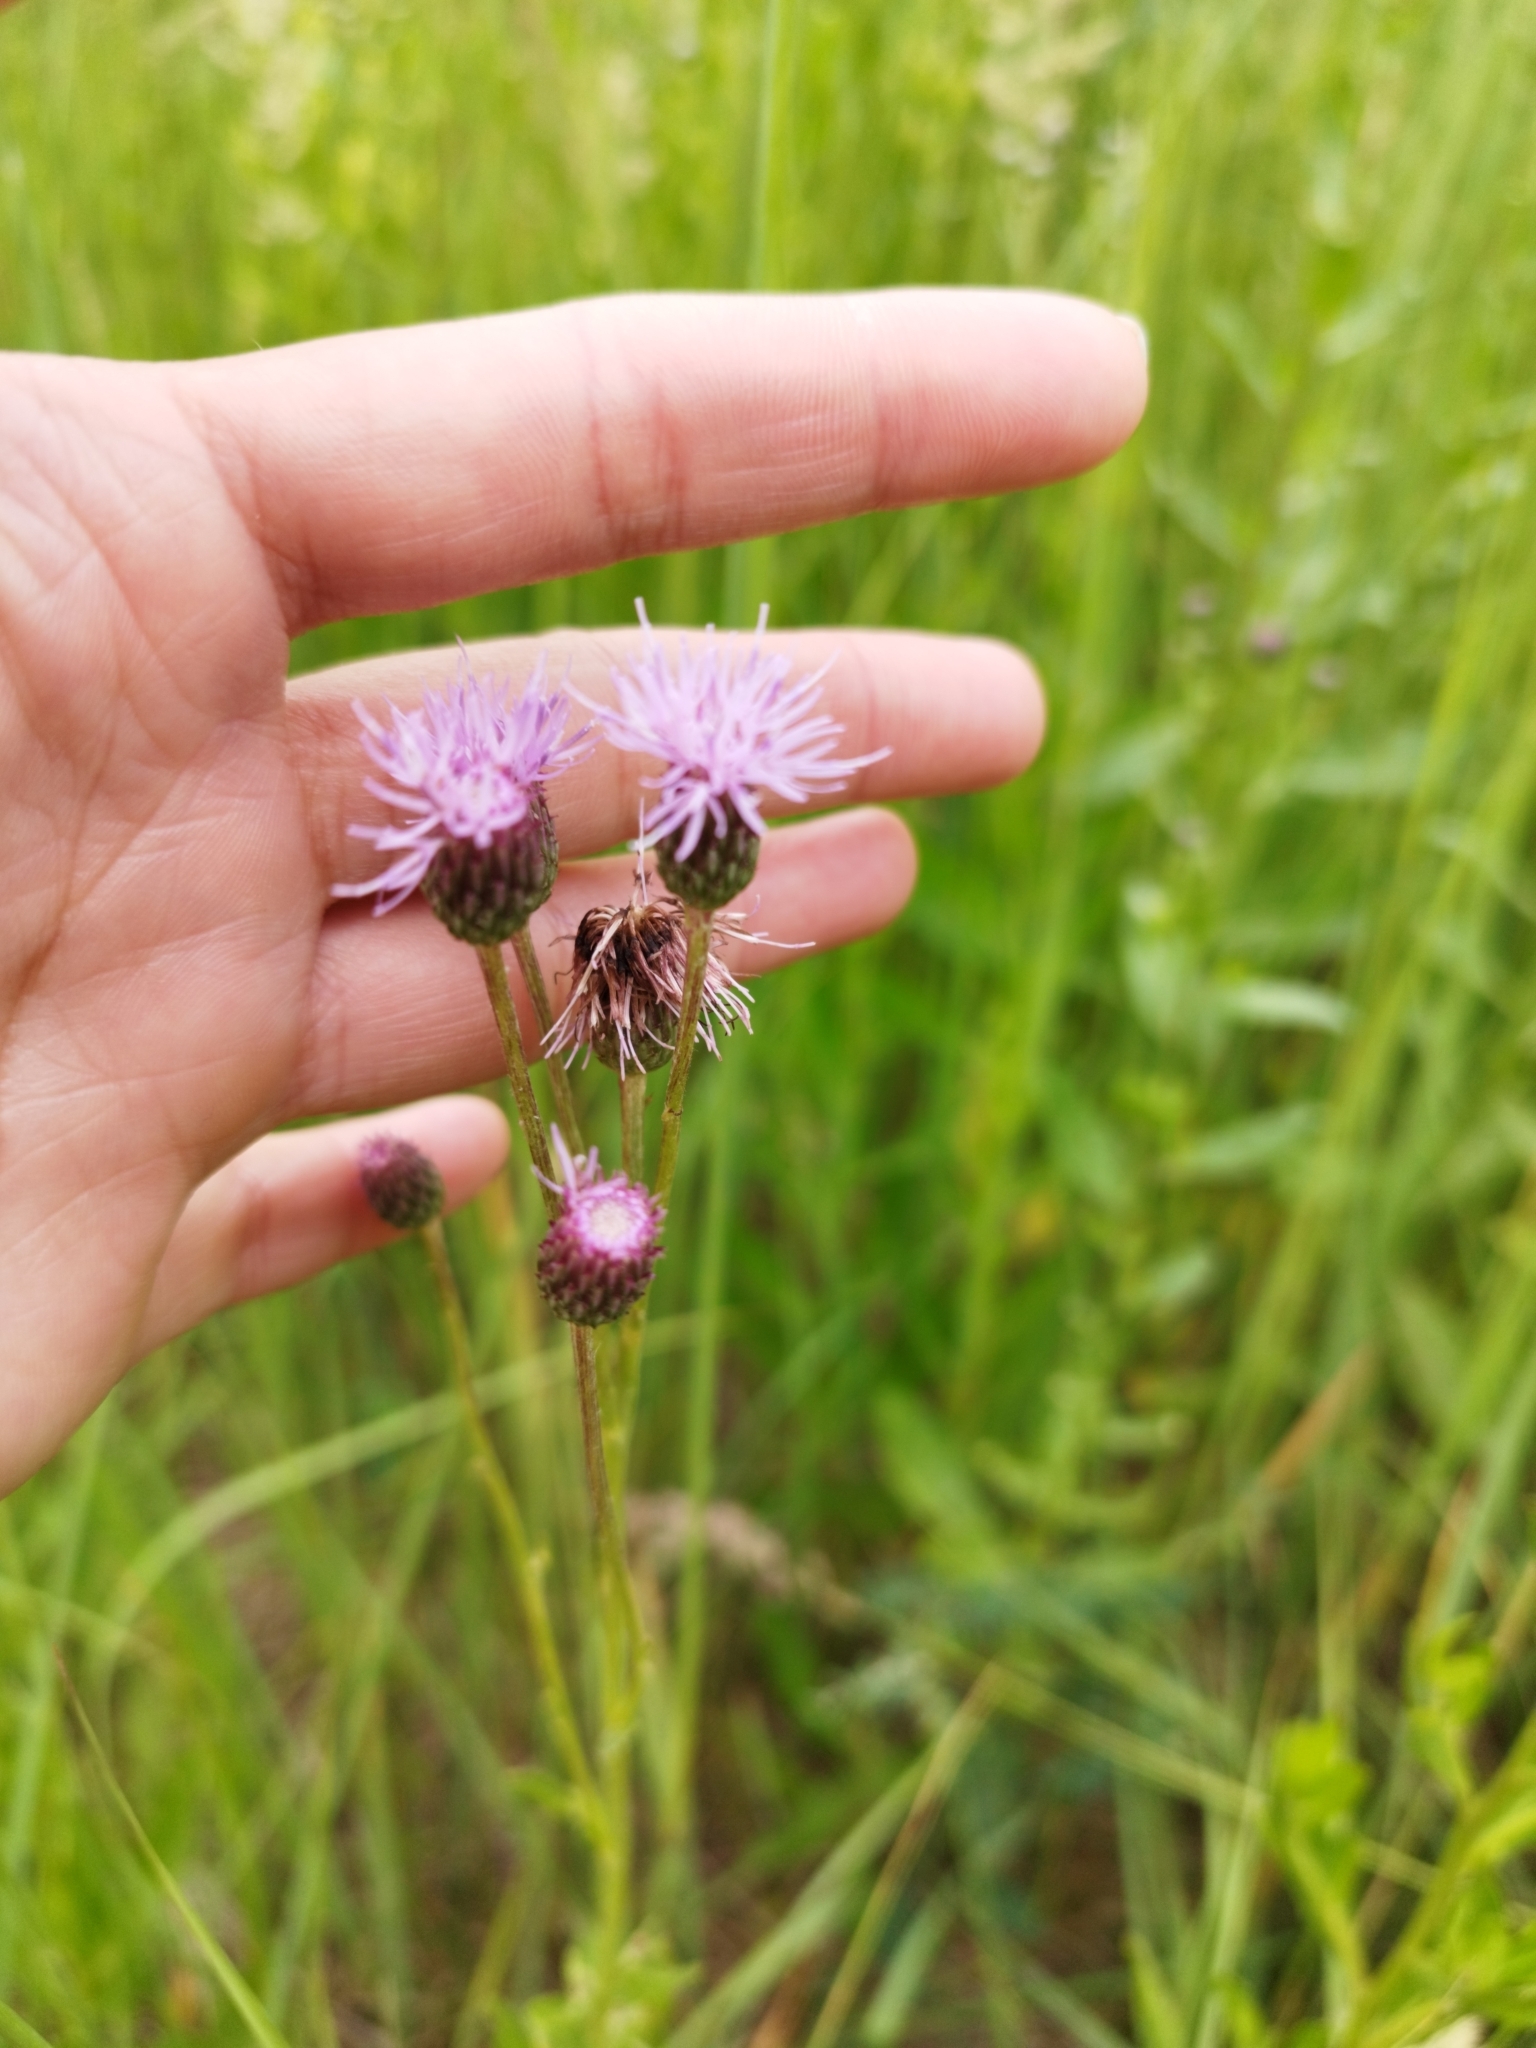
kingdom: Plantae
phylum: Tracheophyta
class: Magnoliopsida
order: Asterales
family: Asteraceae
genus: Cirsium
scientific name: Cirsium arvense
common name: Creeping thistle
